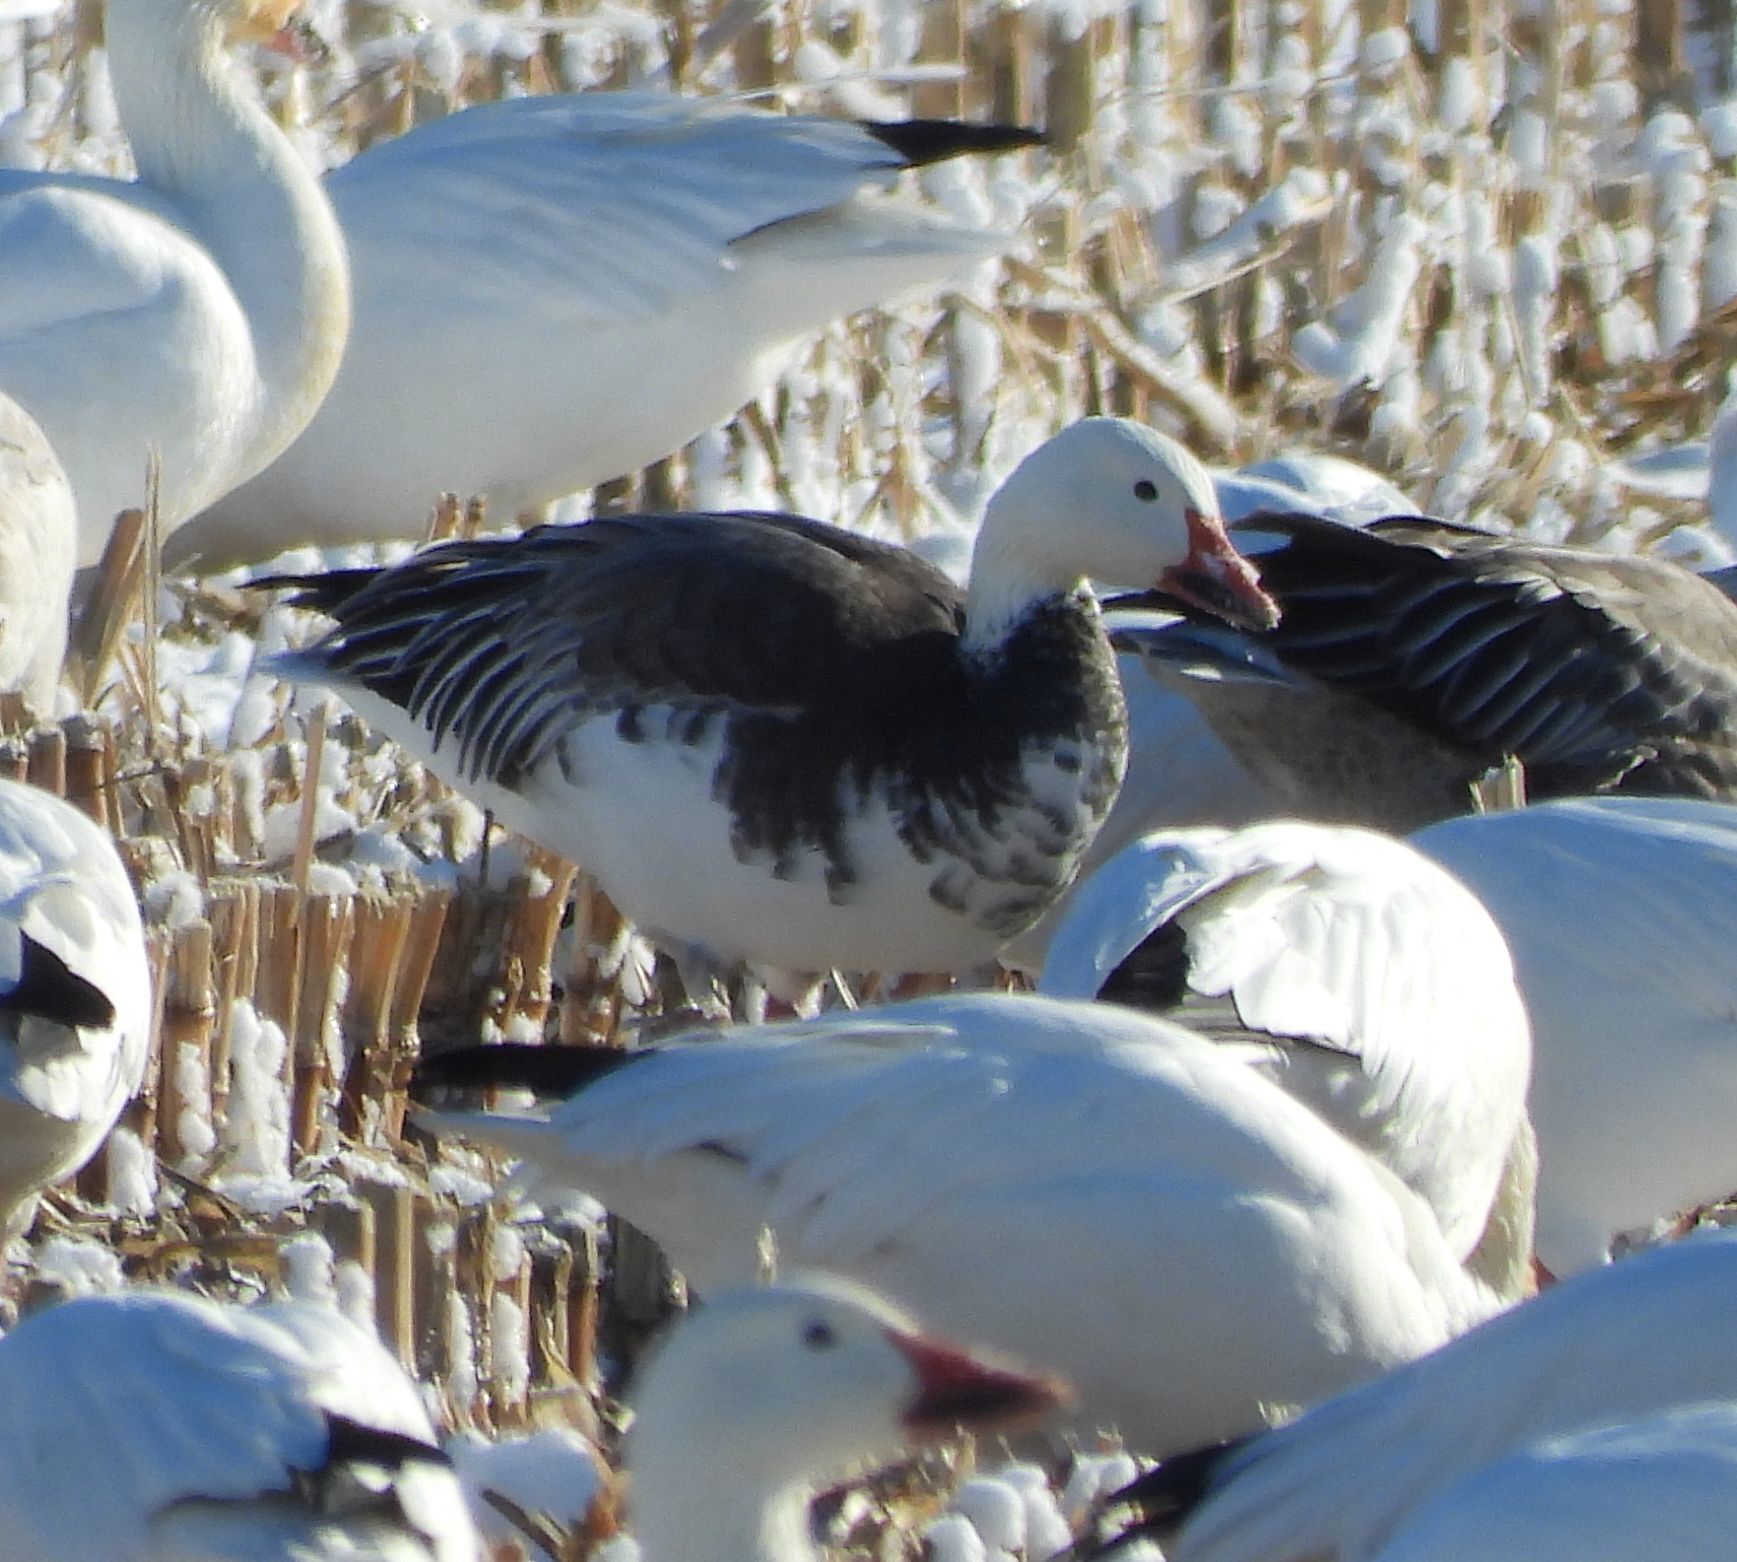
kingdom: Animalia
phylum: Chordata
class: Aves
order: Anseriformes
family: Anatidae
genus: Anser
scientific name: Anser caerulescens
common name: Snow goose
